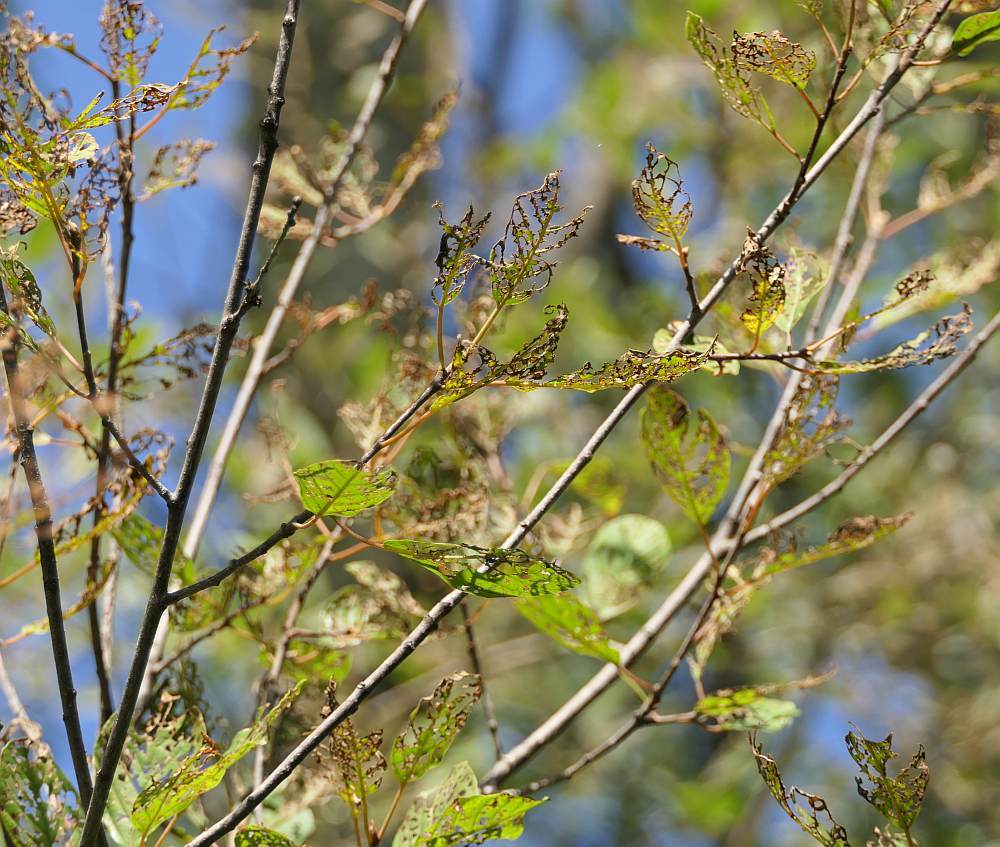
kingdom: Animalia
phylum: Arthropoda
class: Insecta
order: Coleoptera
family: Scarabaeidae
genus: Popillia
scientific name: Popillia japonica
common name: Japanese beetle
